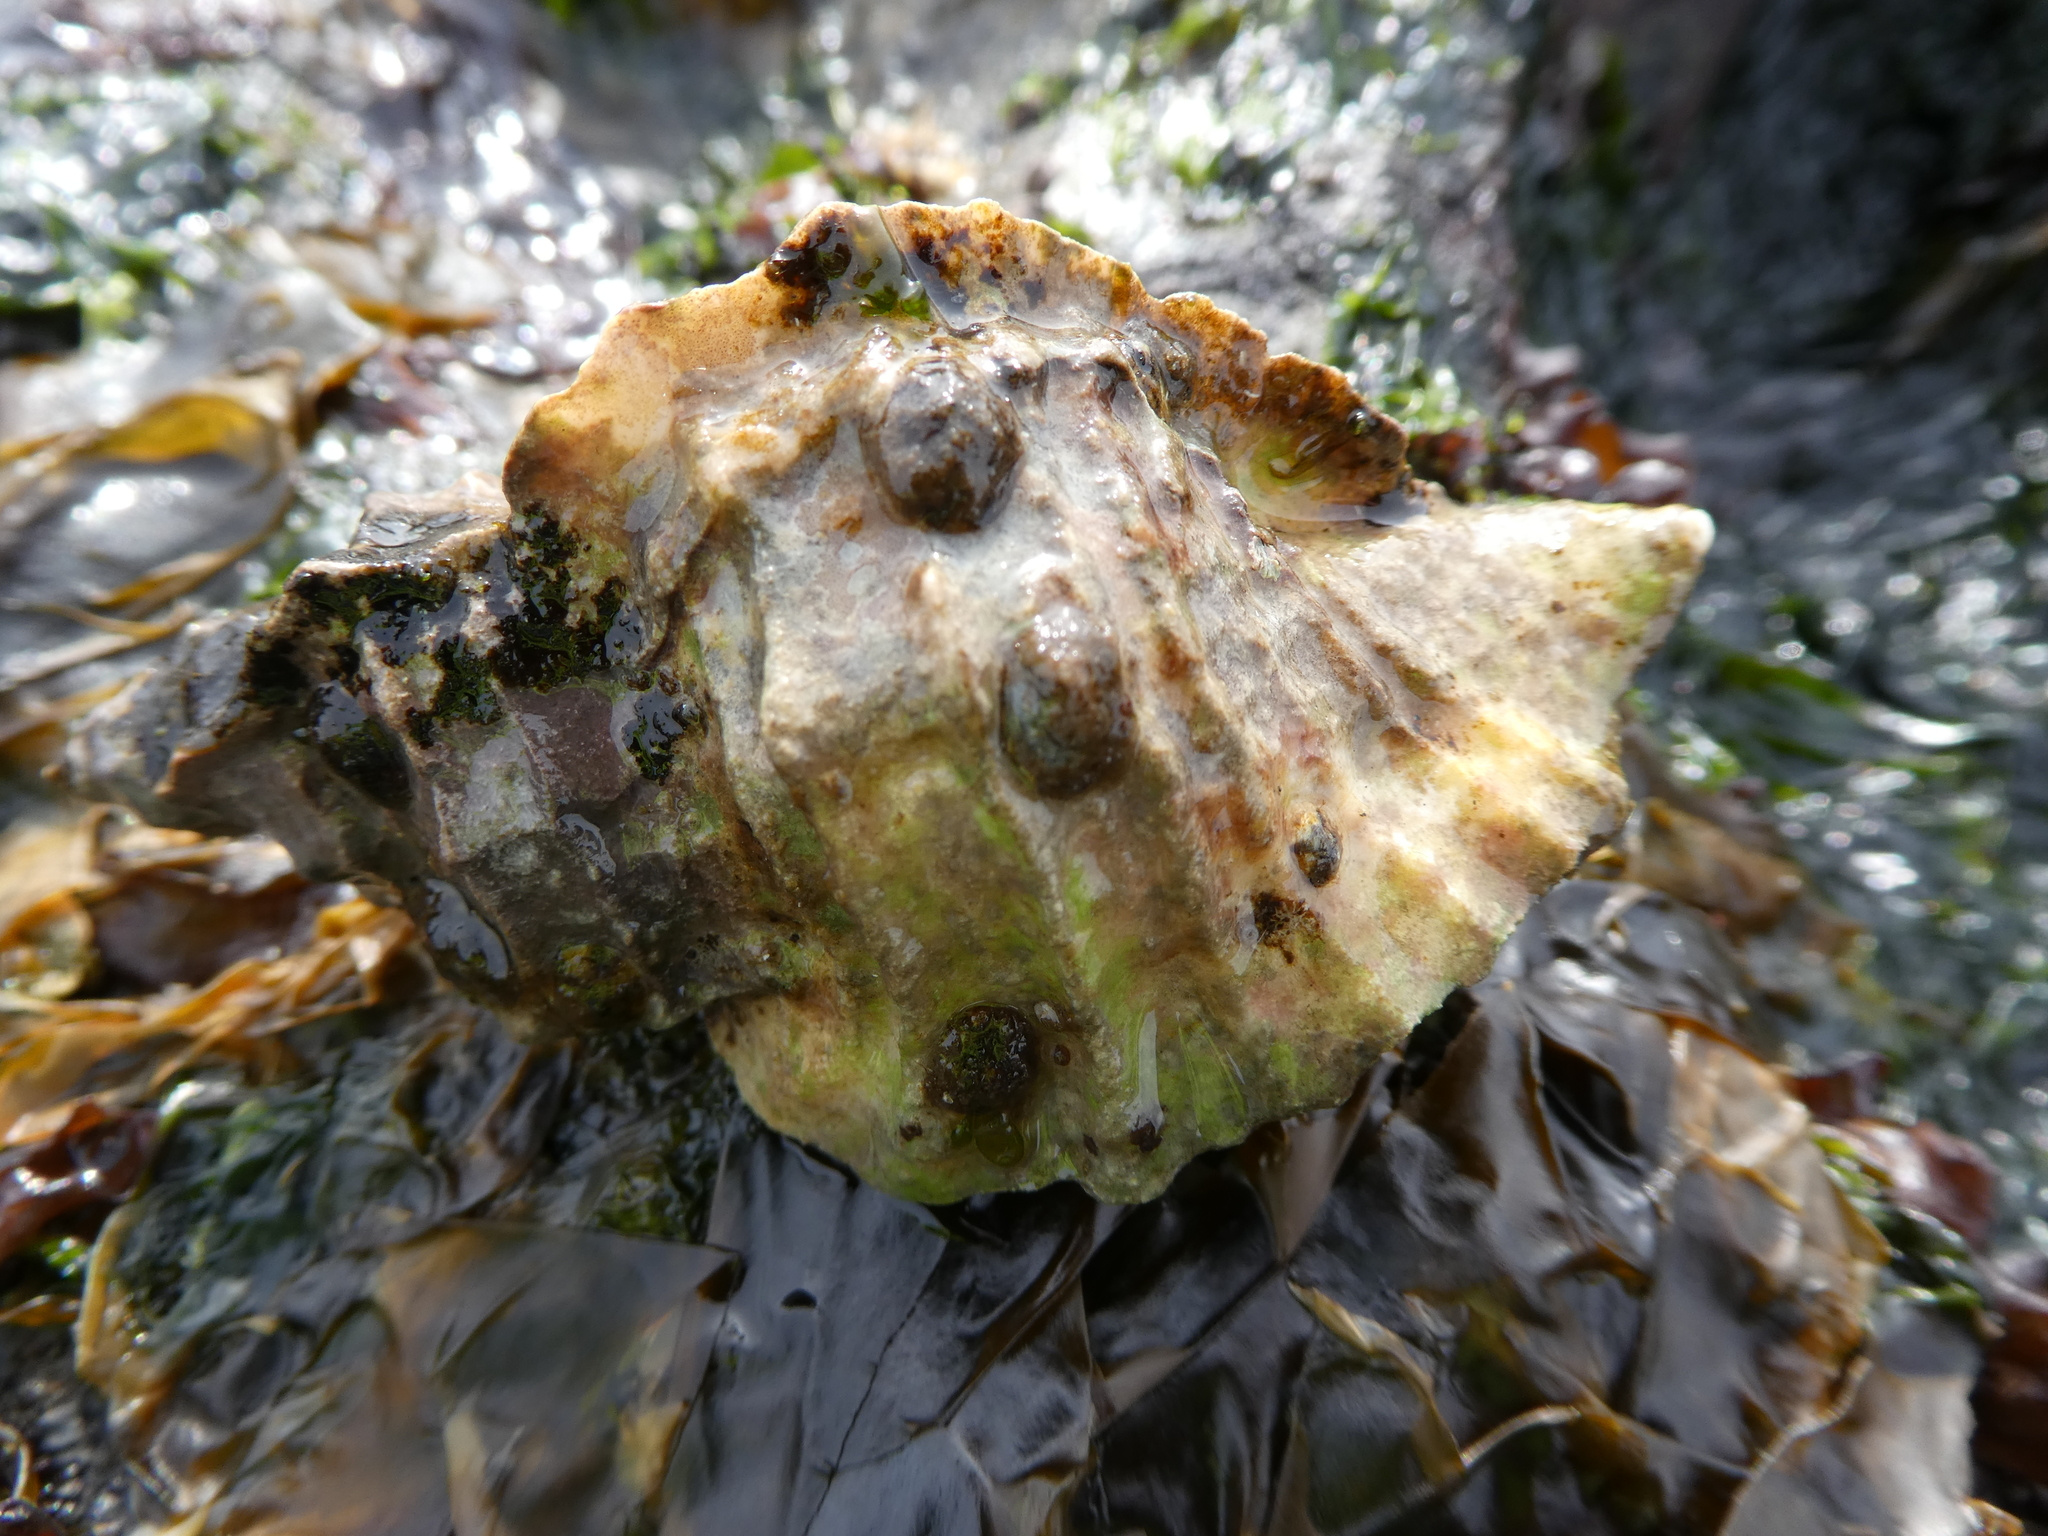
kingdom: Animalia
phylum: Mollusca
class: Gastropoda
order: Neogastropoda
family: Muricidae
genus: Ceratostoma
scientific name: Ceratostoma foliatum
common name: Foliate thorn purpura
